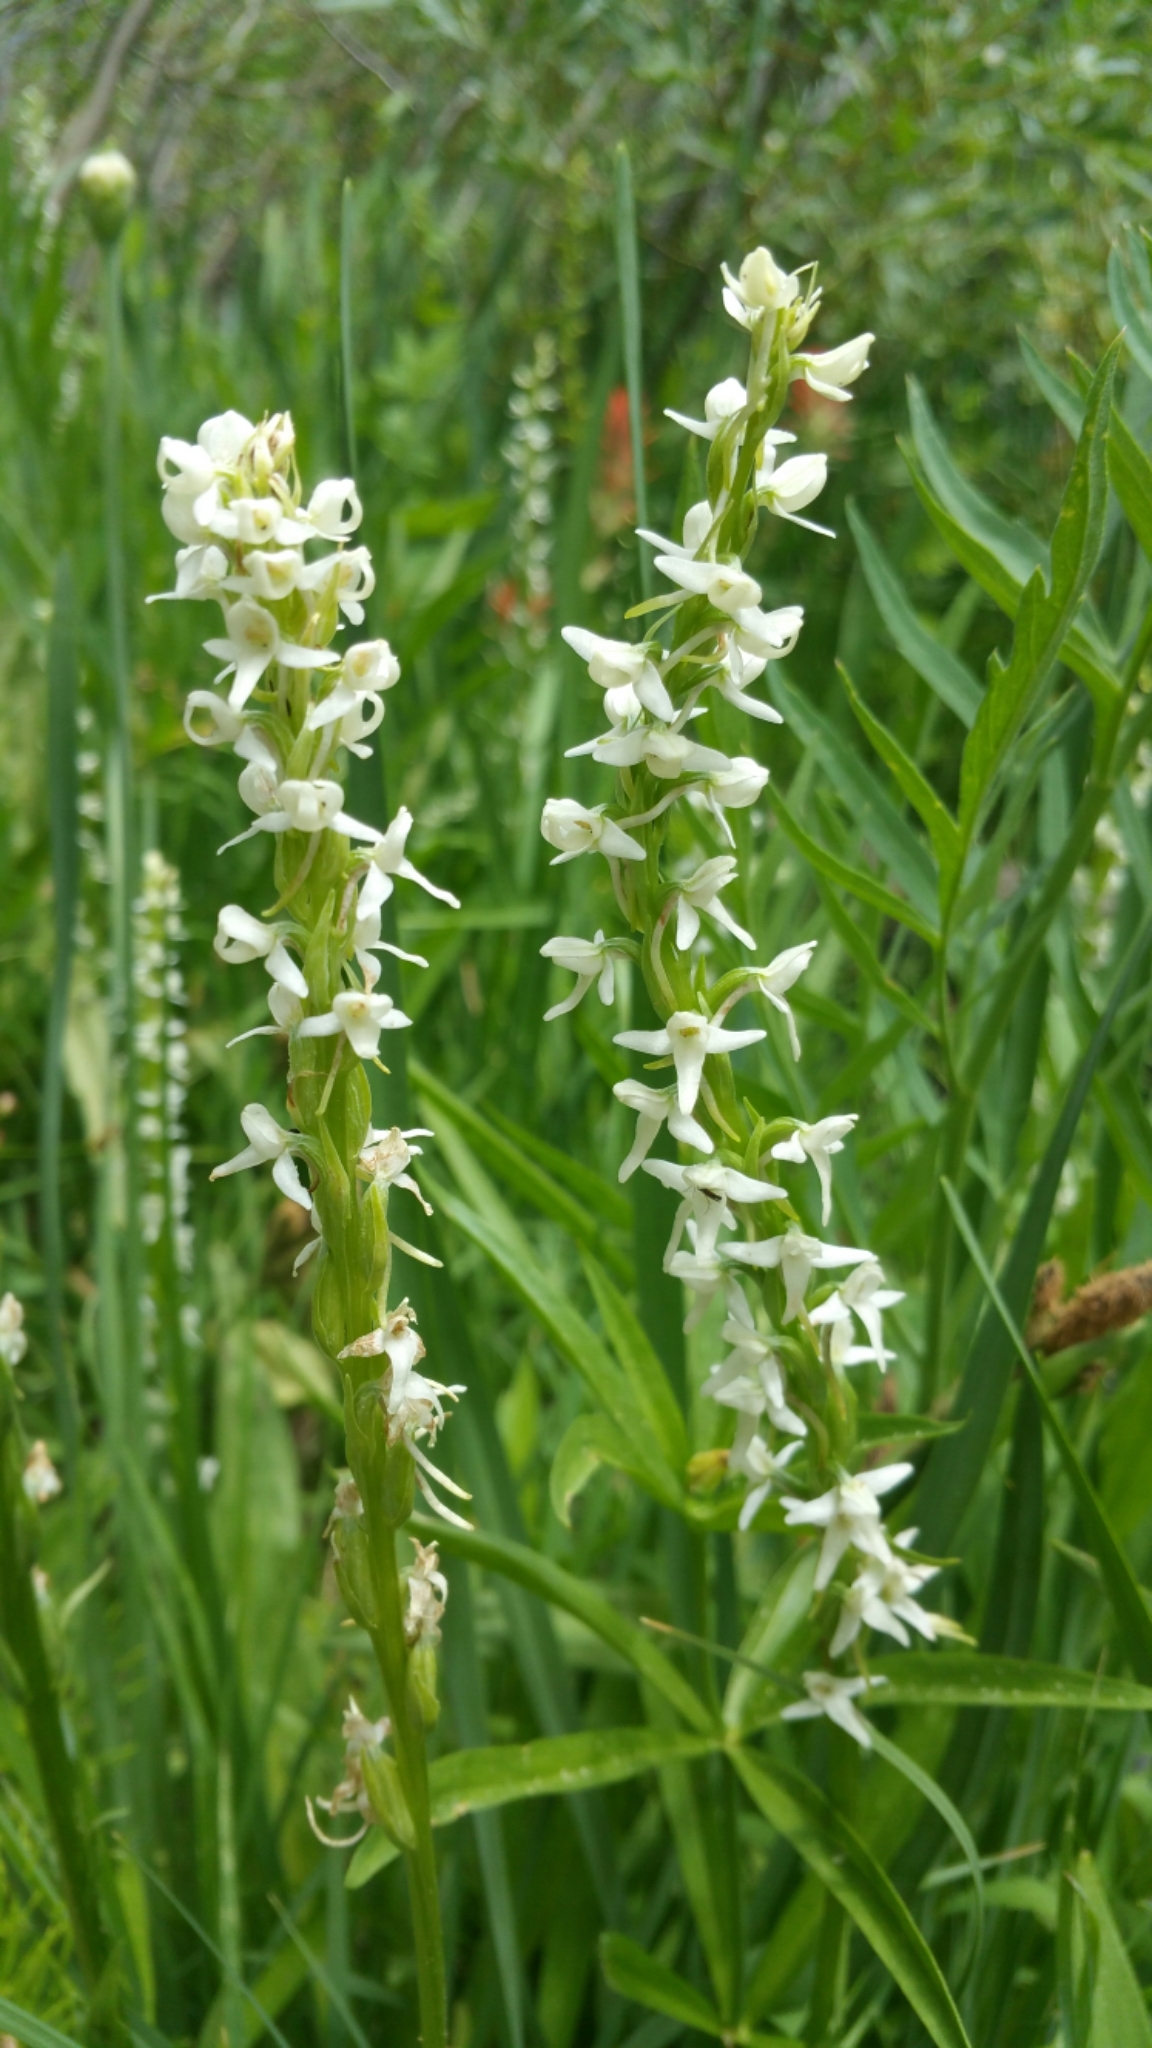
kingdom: Plantae
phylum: Tracheophyta
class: Liliopsida
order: Asparagales
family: Orchidaceae
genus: Platanthera
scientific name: Platanthera dilatata
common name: Bog candles
